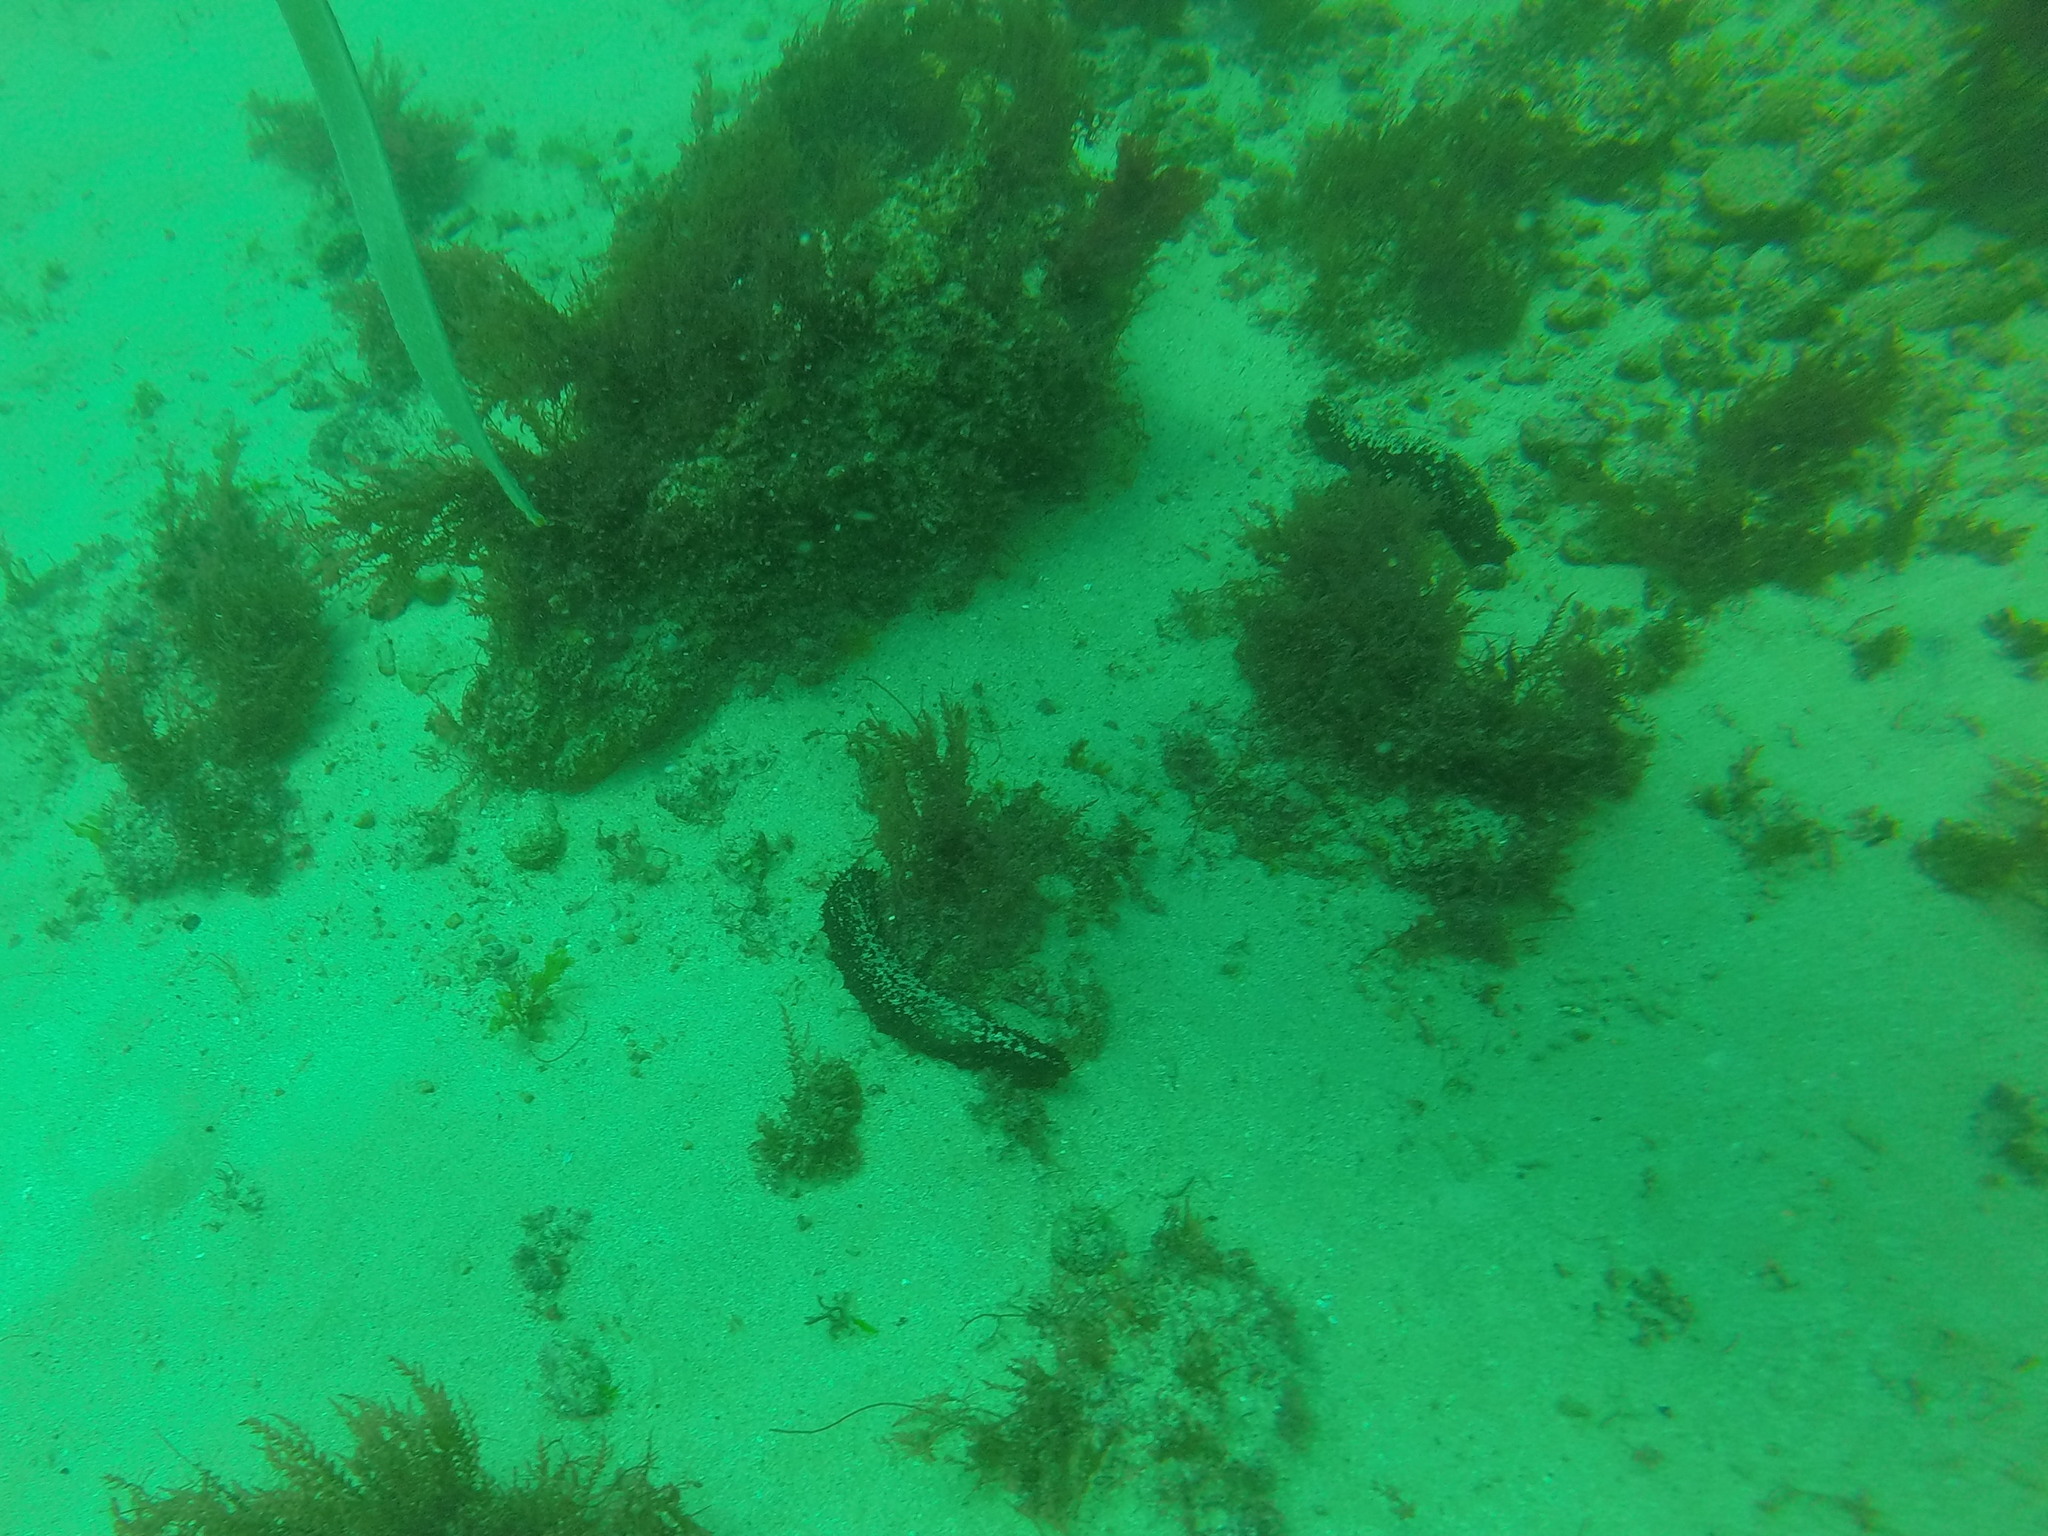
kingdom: Animalia
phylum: Echinodermata
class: Holothuroidea
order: Holothuriida
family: Holothuriidae
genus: Holothuria
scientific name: Holothuria
